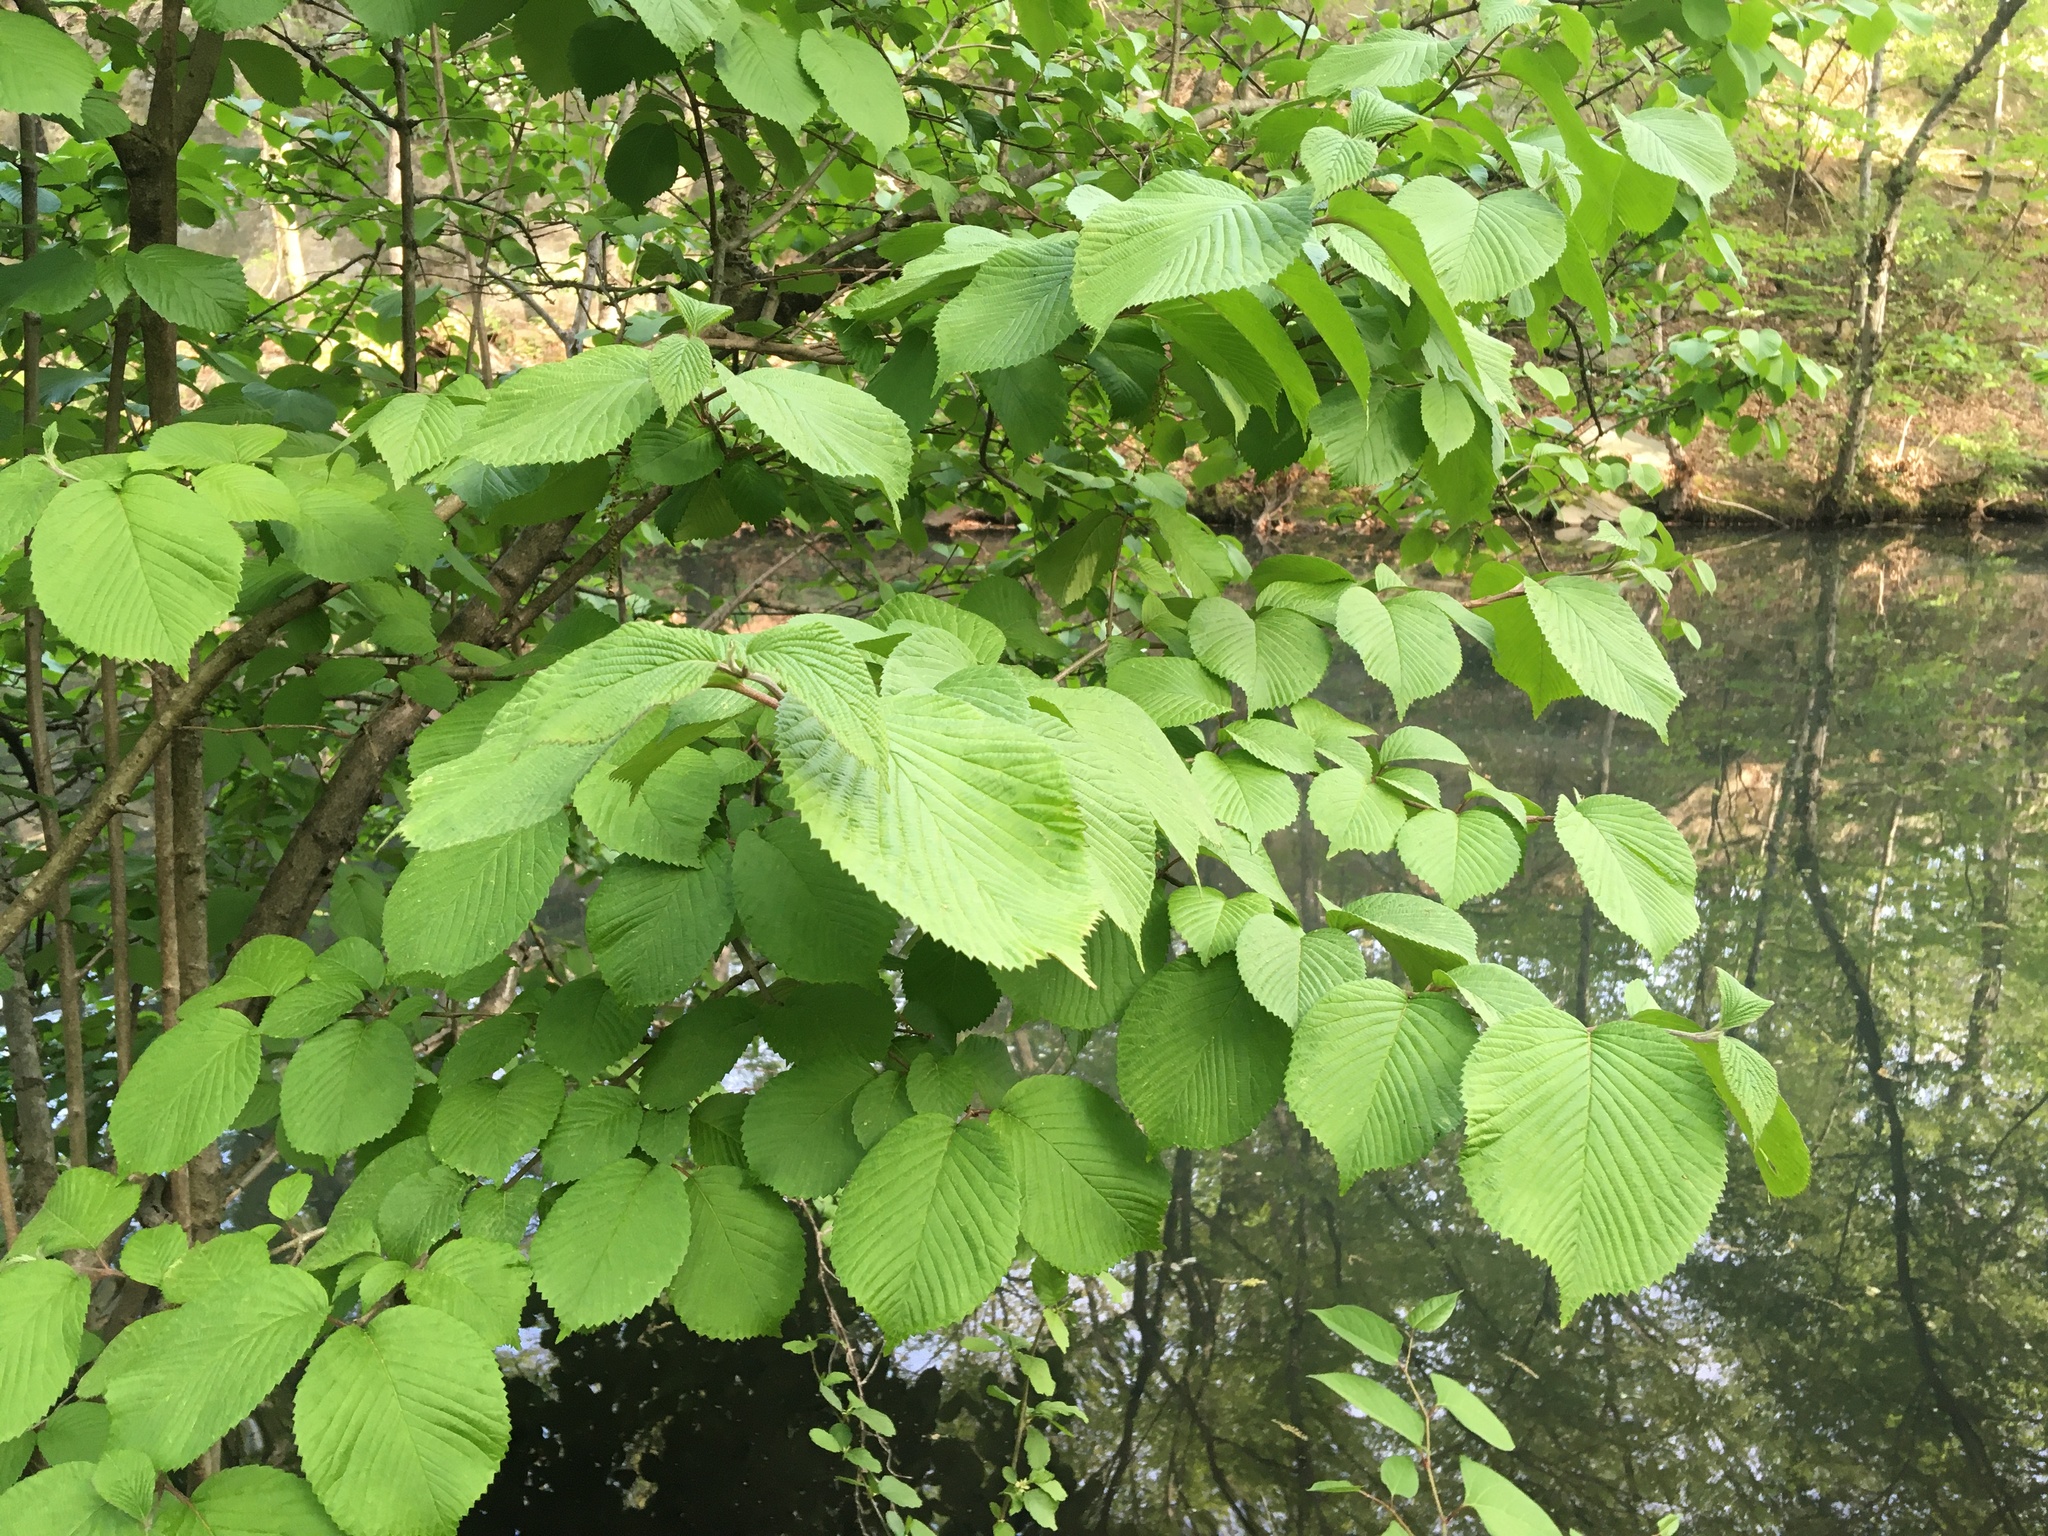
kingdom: Plantae
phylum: Tracheophyta
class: Magnoliopsida
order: Dipsacales
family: Viburnaceae
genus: Viburnum
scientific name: Viburnum plicatum
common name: Japanese snowball
